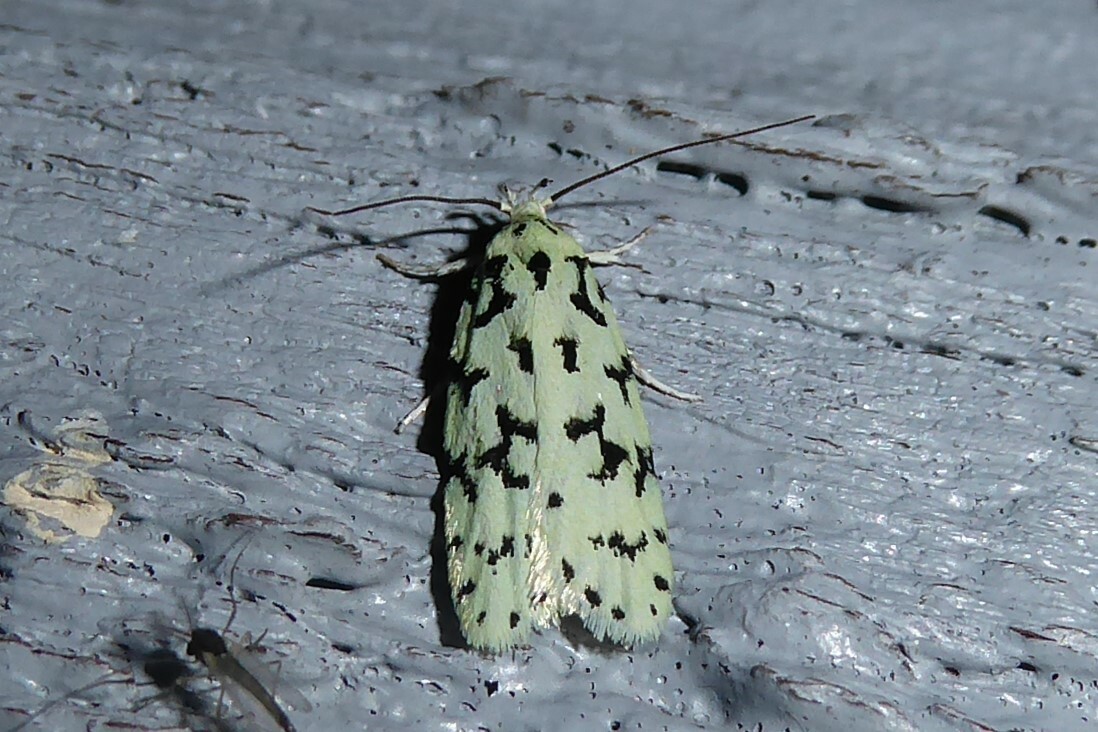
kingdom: Animalia
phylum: Arthropoda
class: Insecta
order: Lepidoptera
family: Oecophoridae
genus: Izatha
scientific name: Izatha huttoni
